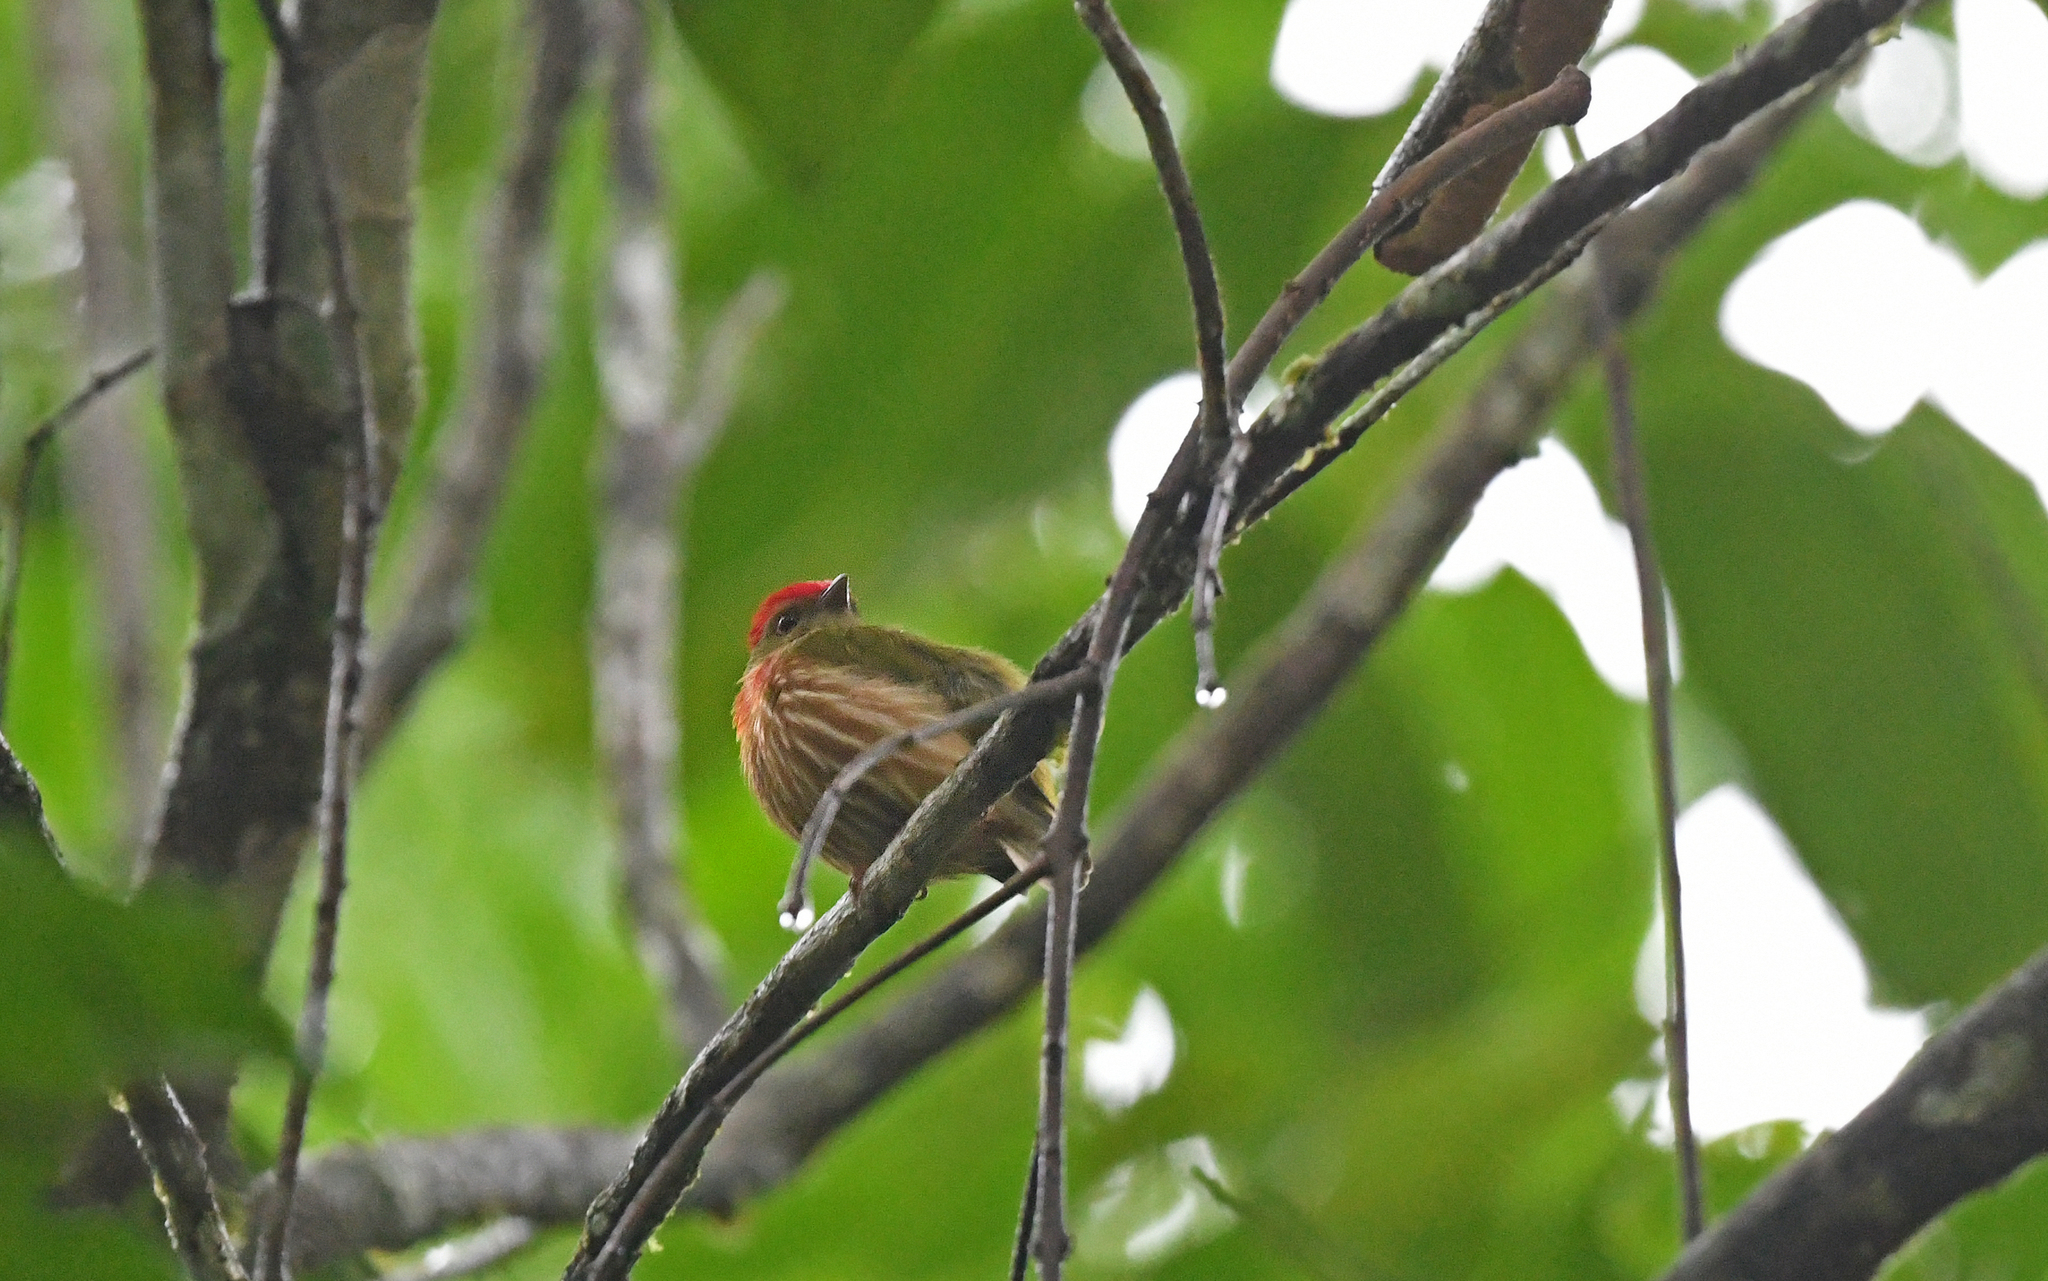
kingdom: Animalia
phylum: Chordata
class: Aves
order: Passeriformes
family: Pipridae
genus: Machaeropterus
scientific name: Machaeropterus striolatus
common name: Striolated manakin
